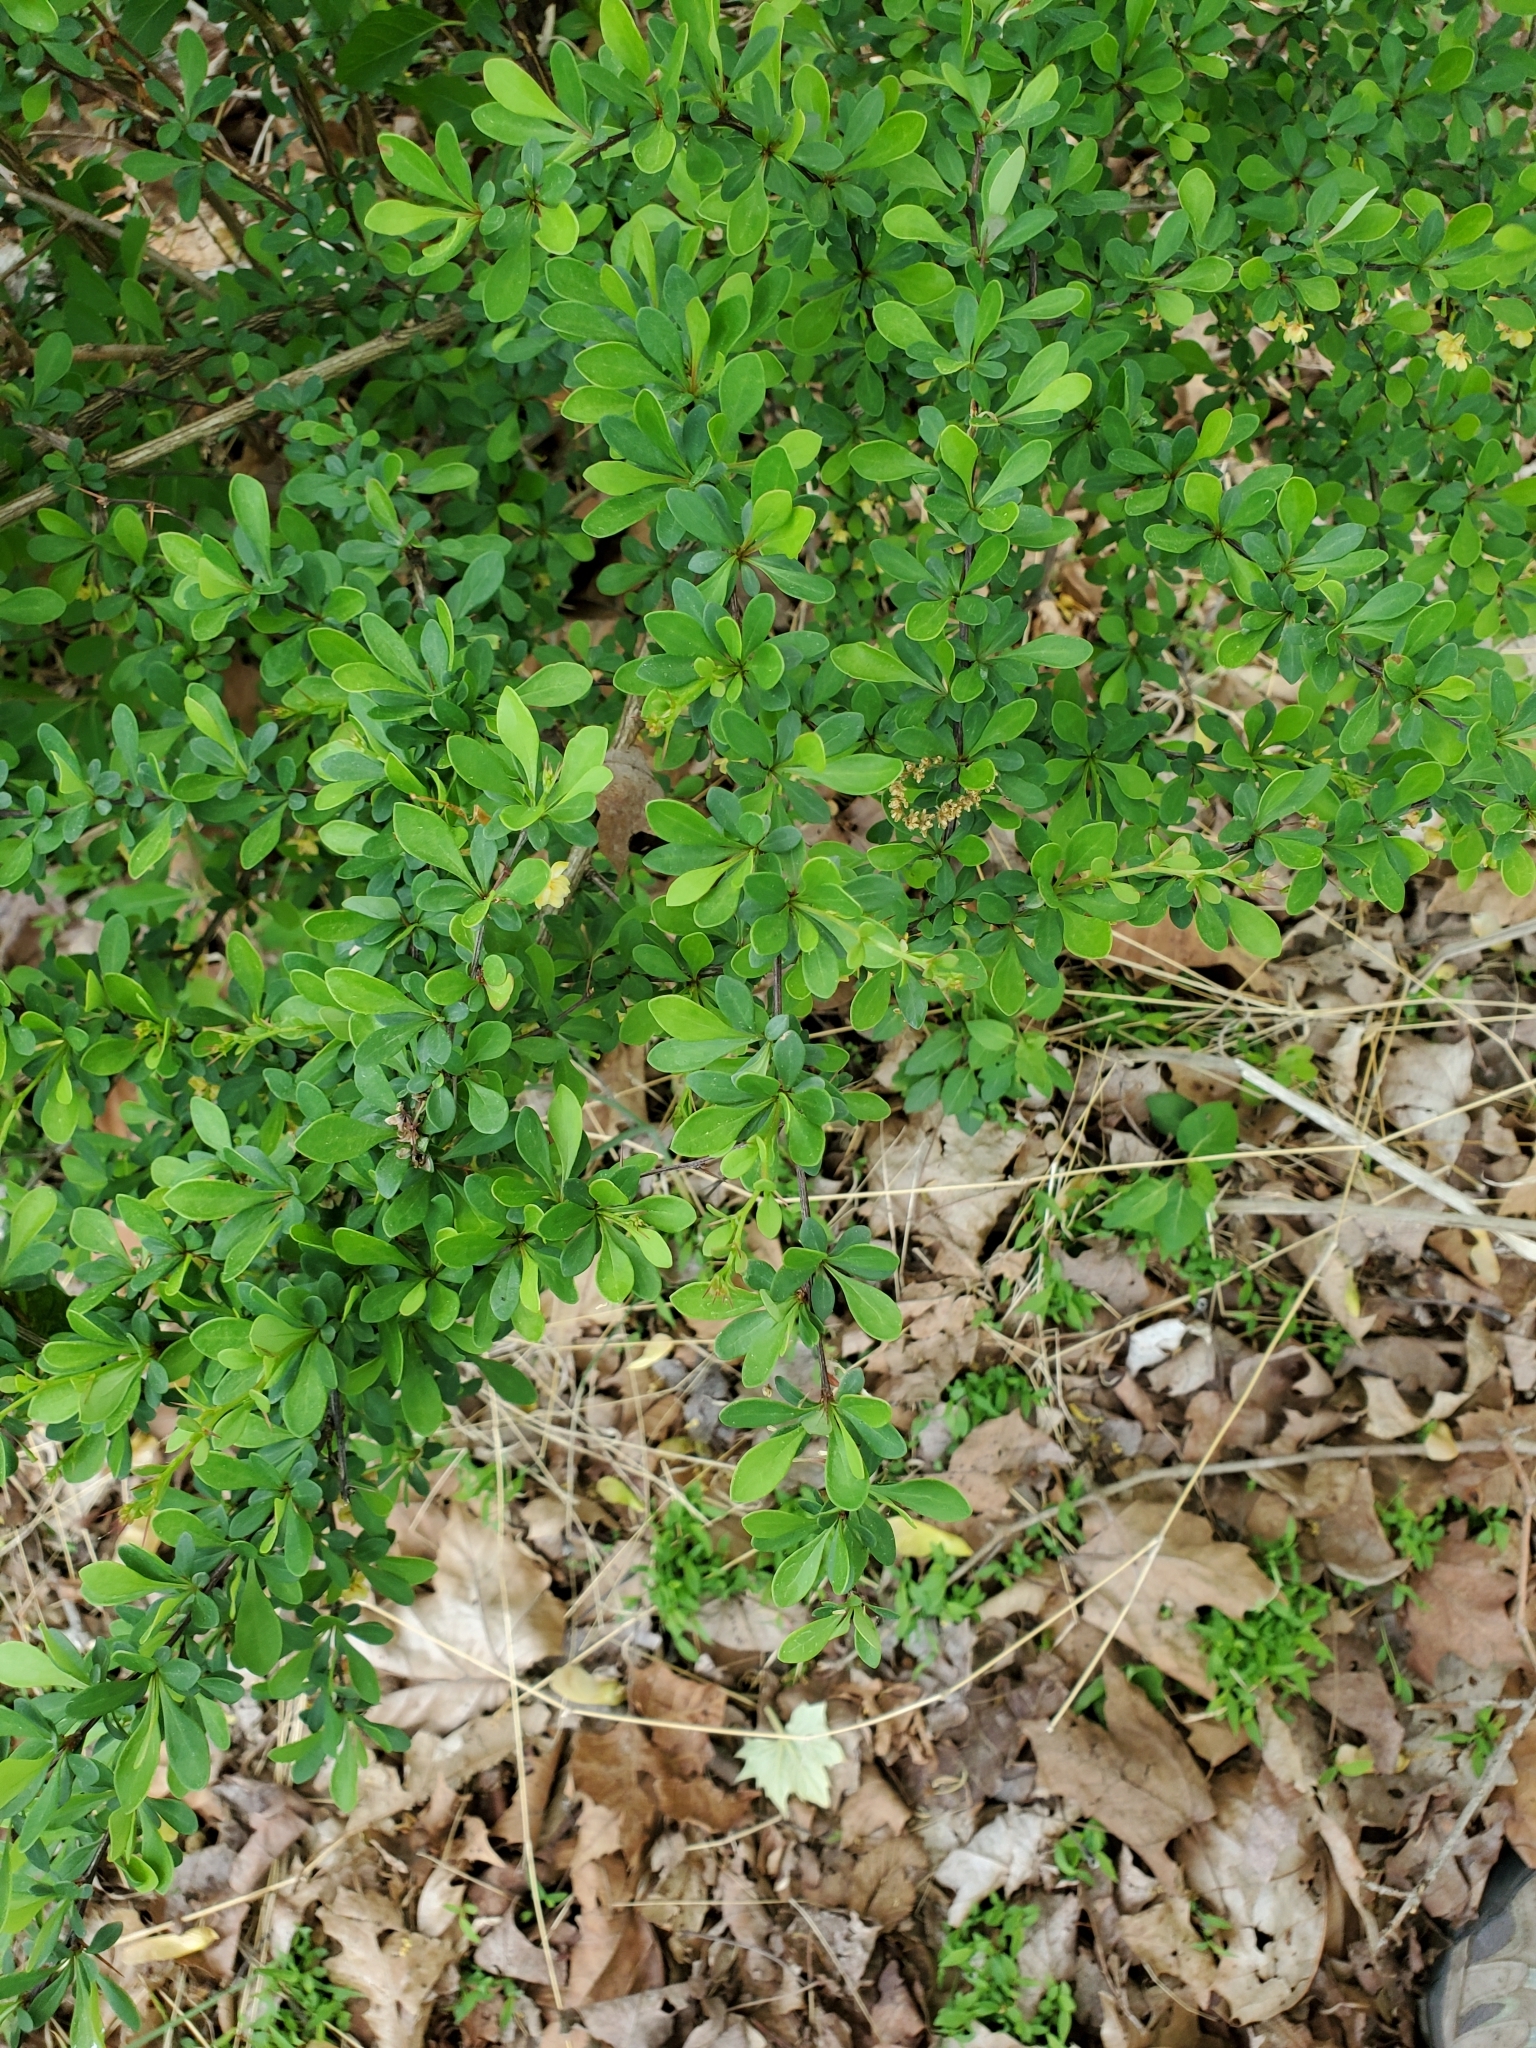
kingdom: Plantae
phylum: Tracheophyta
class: Magnoliopsida
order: Ranunculales
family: Berberidaceae
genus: Berberis
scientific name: Berberis thunbergii
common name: Japanese barberry
